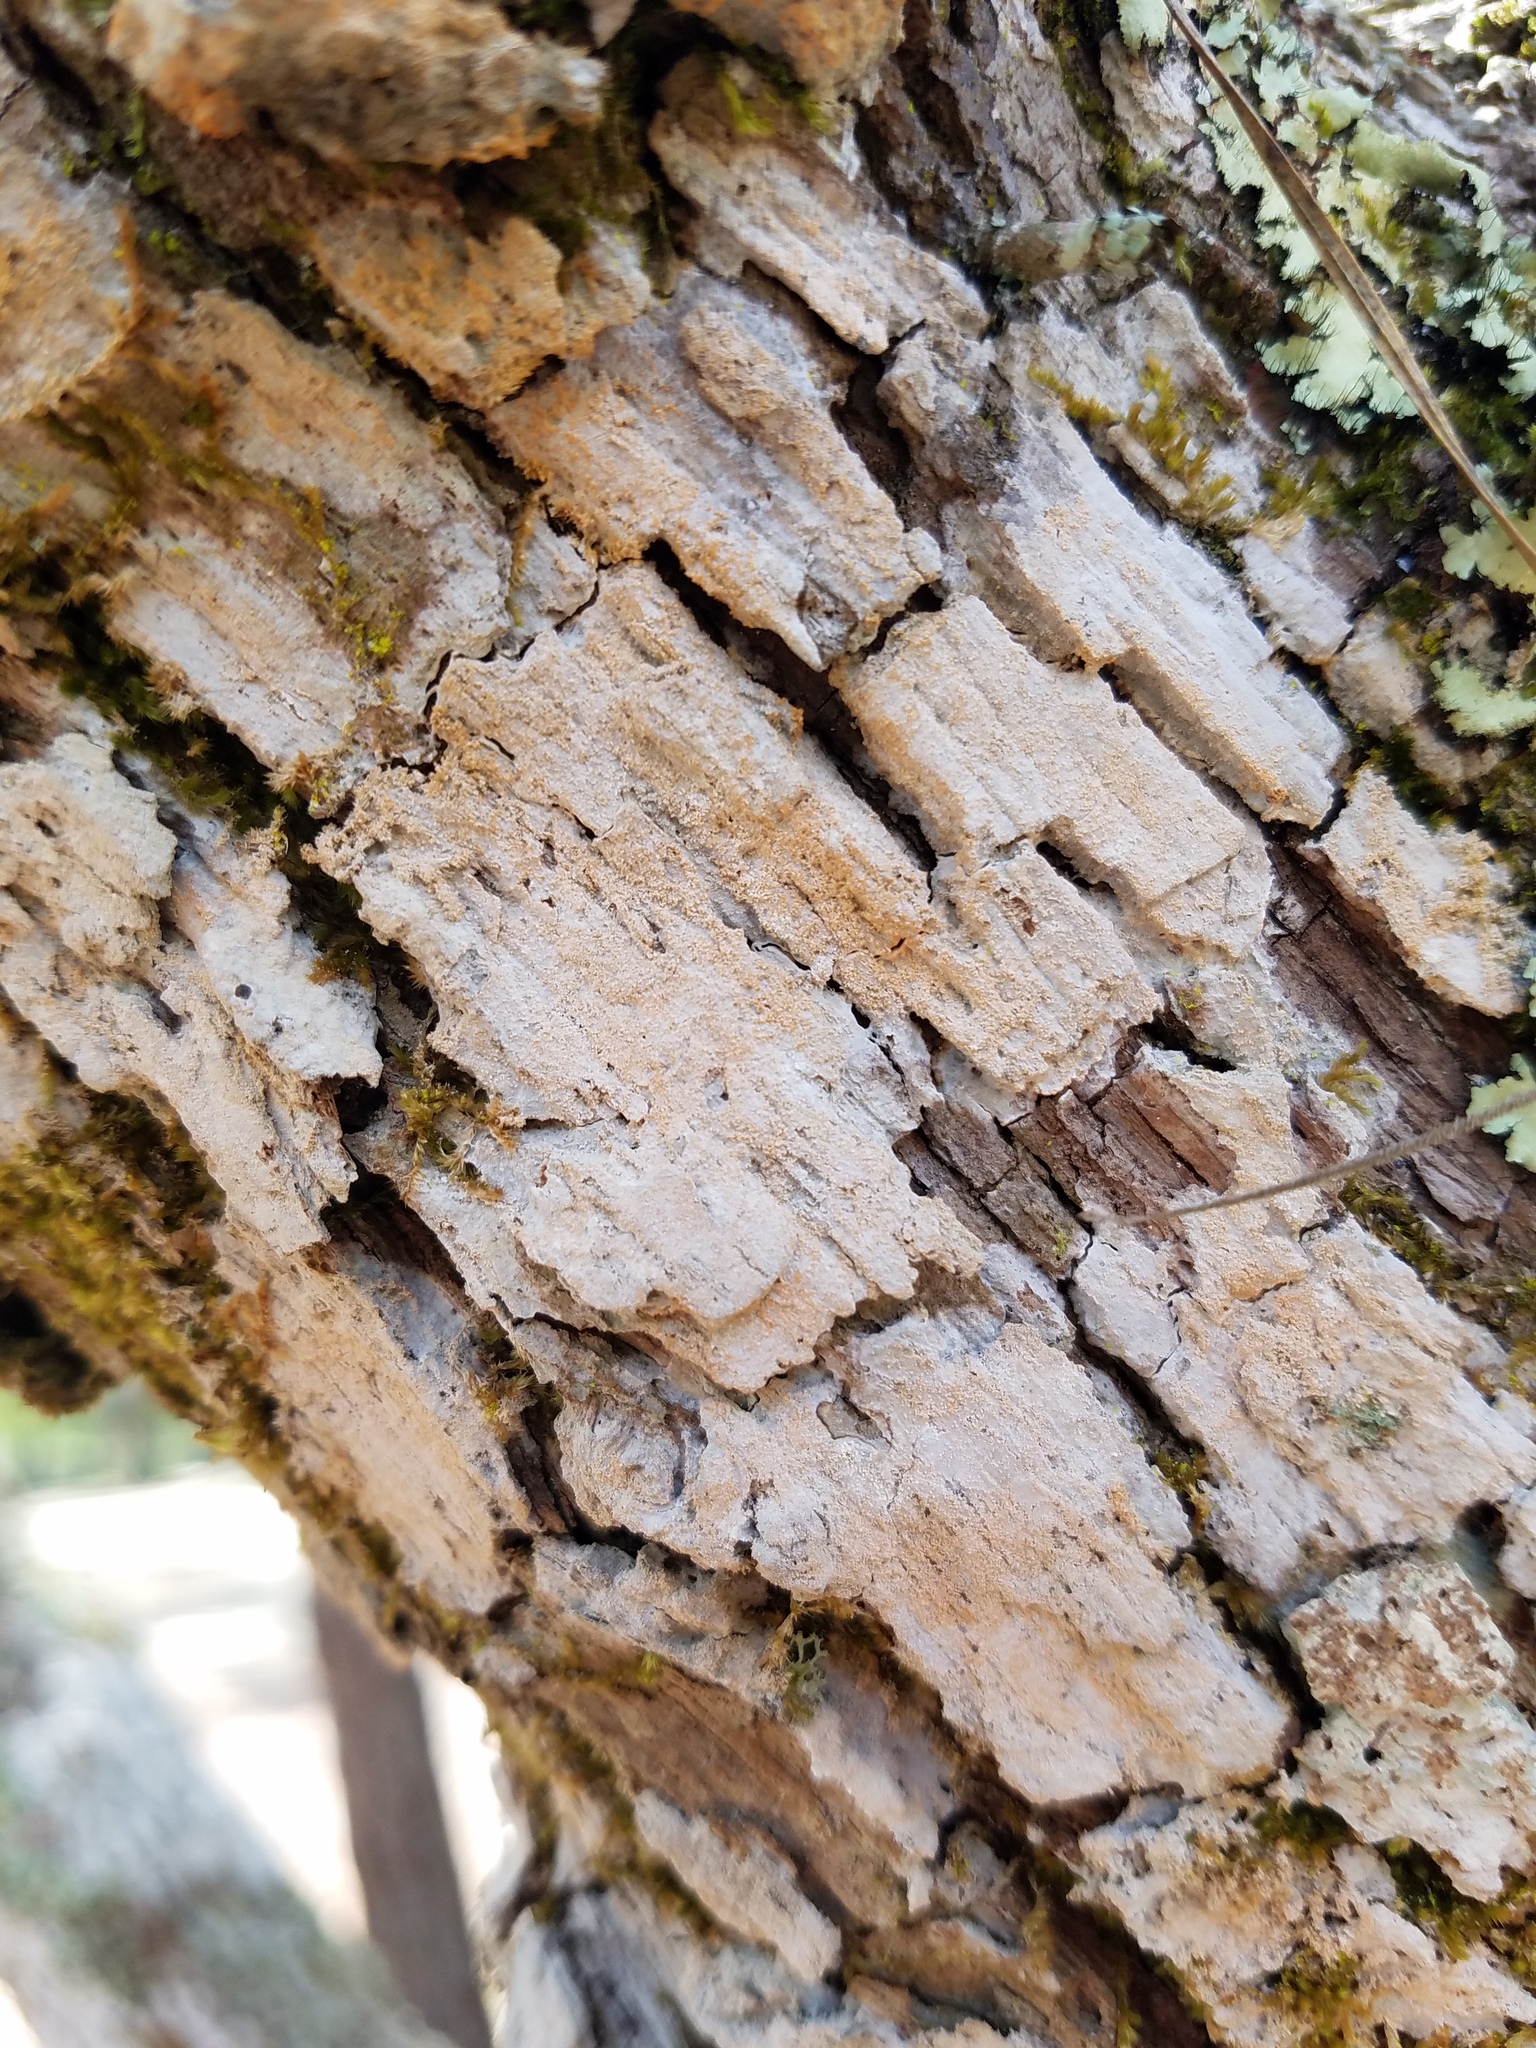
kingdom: Fungi
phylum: Ascomycota
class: Arthoniomycetes
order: Arthoniales
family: Arthoniaceae
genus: Herpothallon
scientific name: Herpothallon rubrogranulosum
